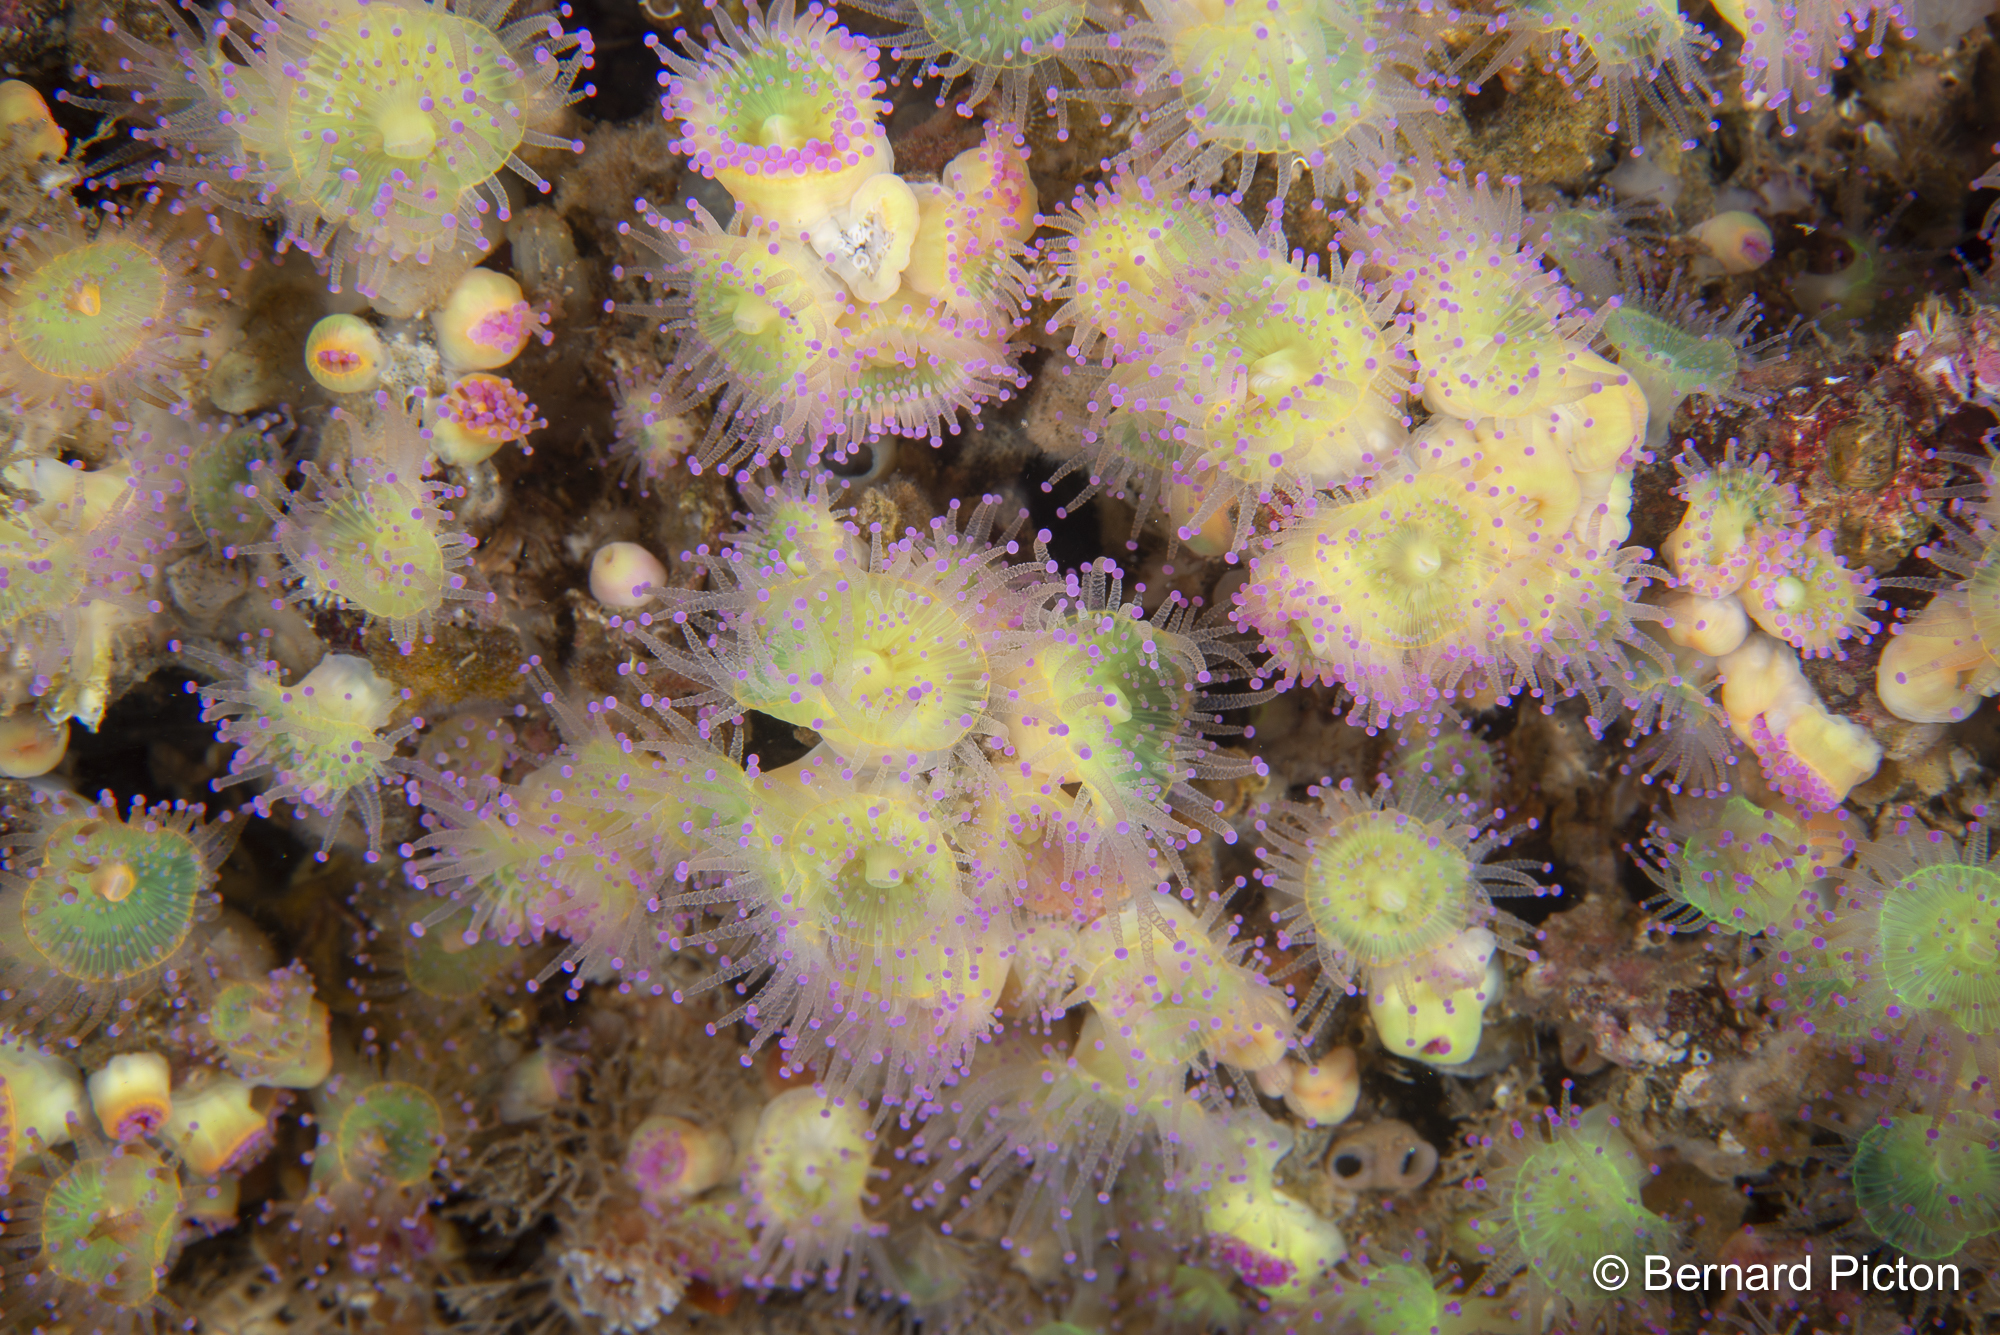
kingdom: Animalia
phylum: Cnidaria
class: Anthozoa
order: Corallimorpharia
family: Corallimorphidae
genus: Corynactis
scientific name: Corynactis viridis
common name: Jewel anemone
